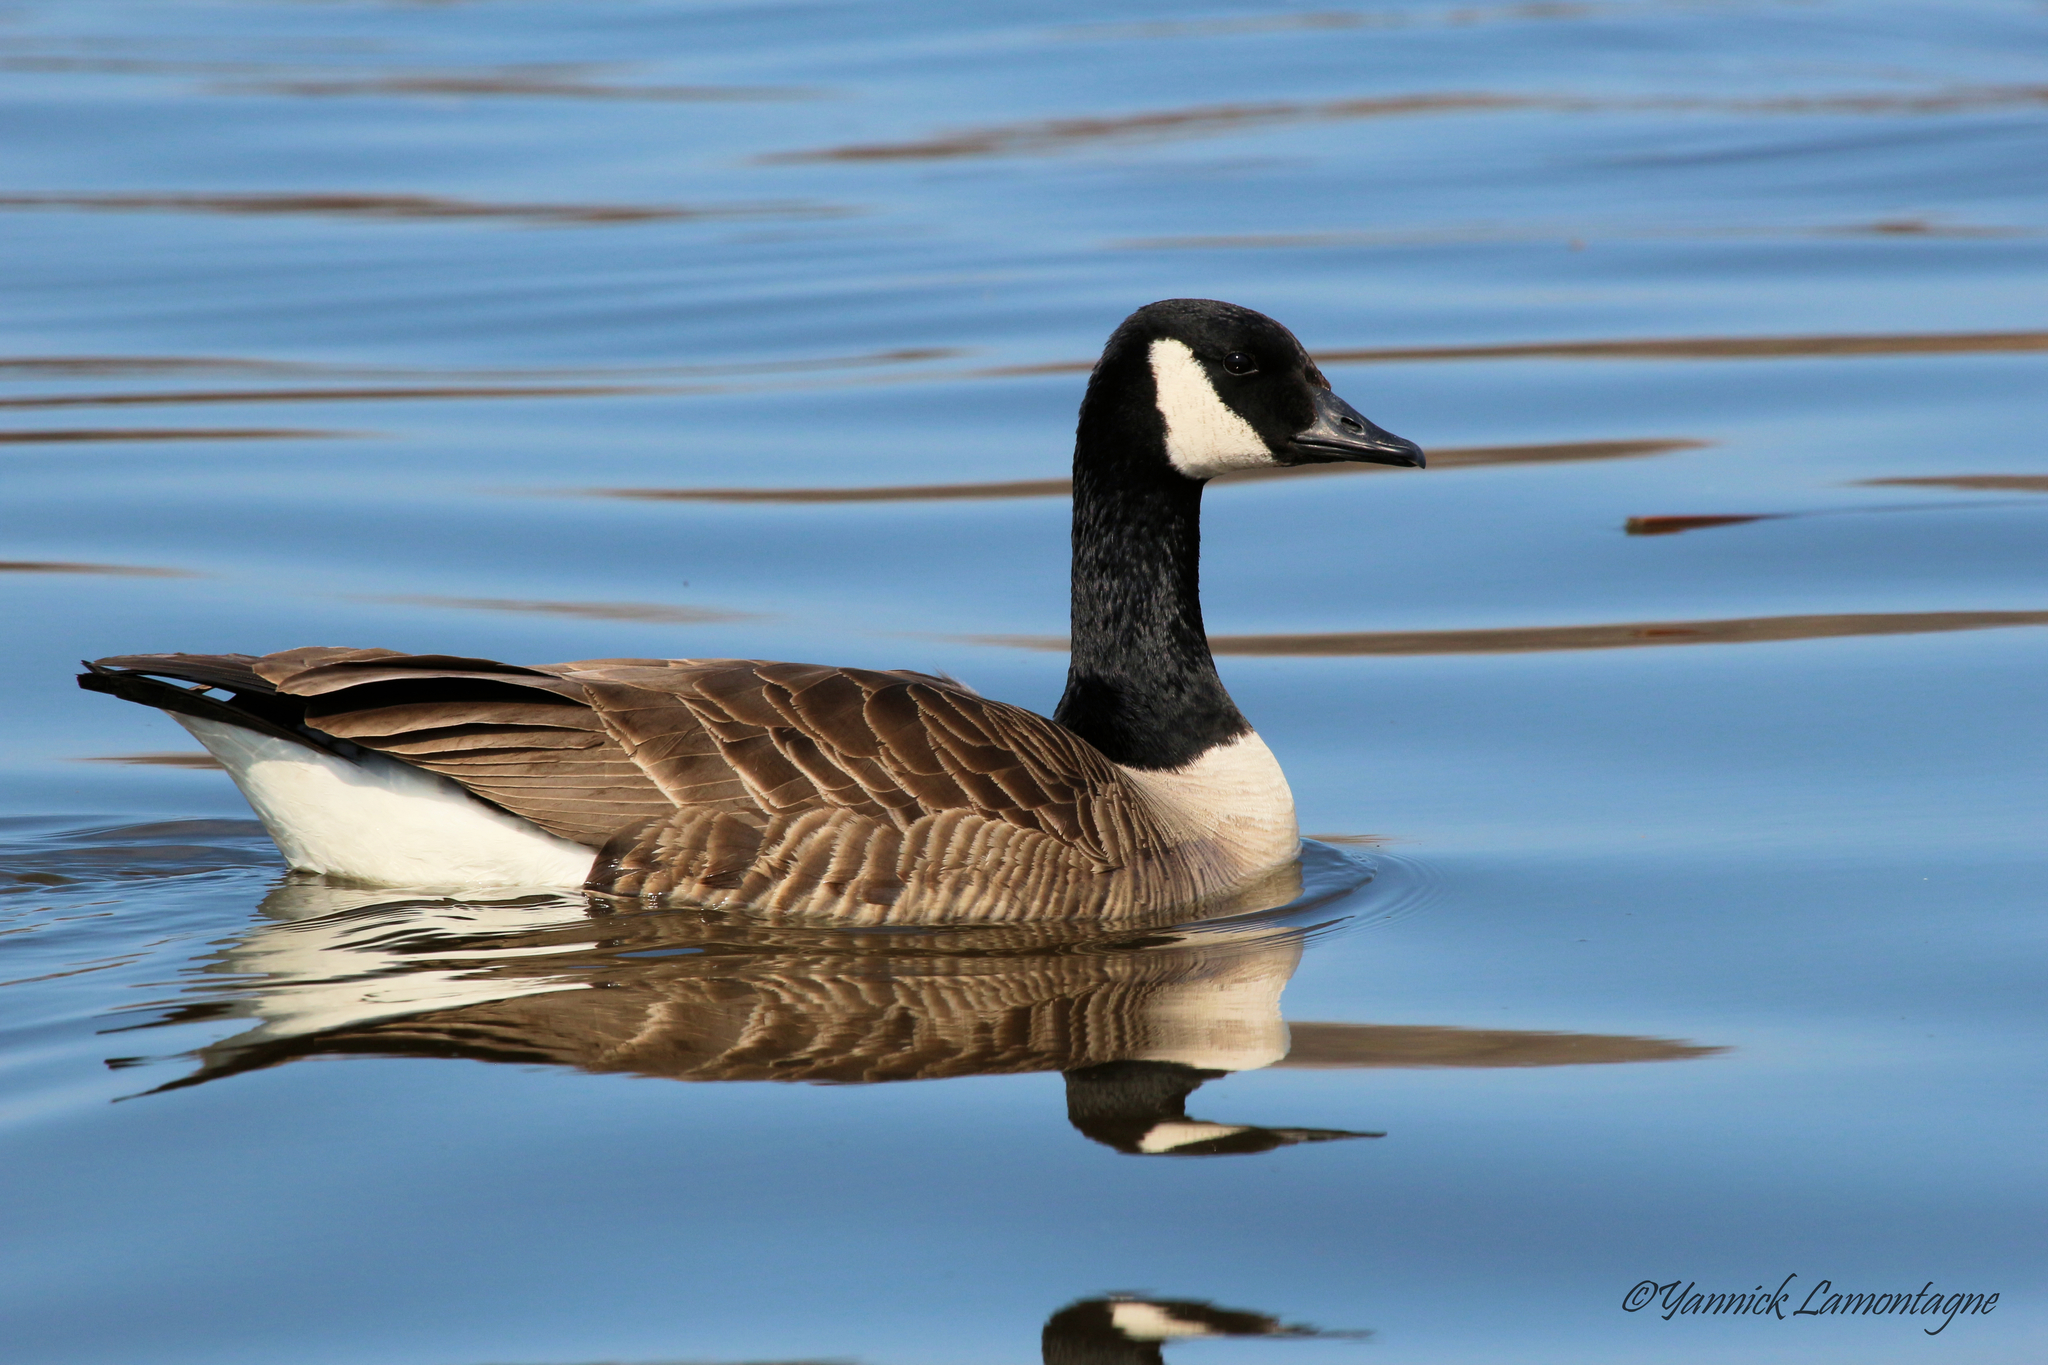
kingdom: Animalia
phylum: Chordata
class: Aves
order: Anseriformes
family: Anatidae
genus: Branta
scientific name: Branta canadensis
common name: Canada goose
